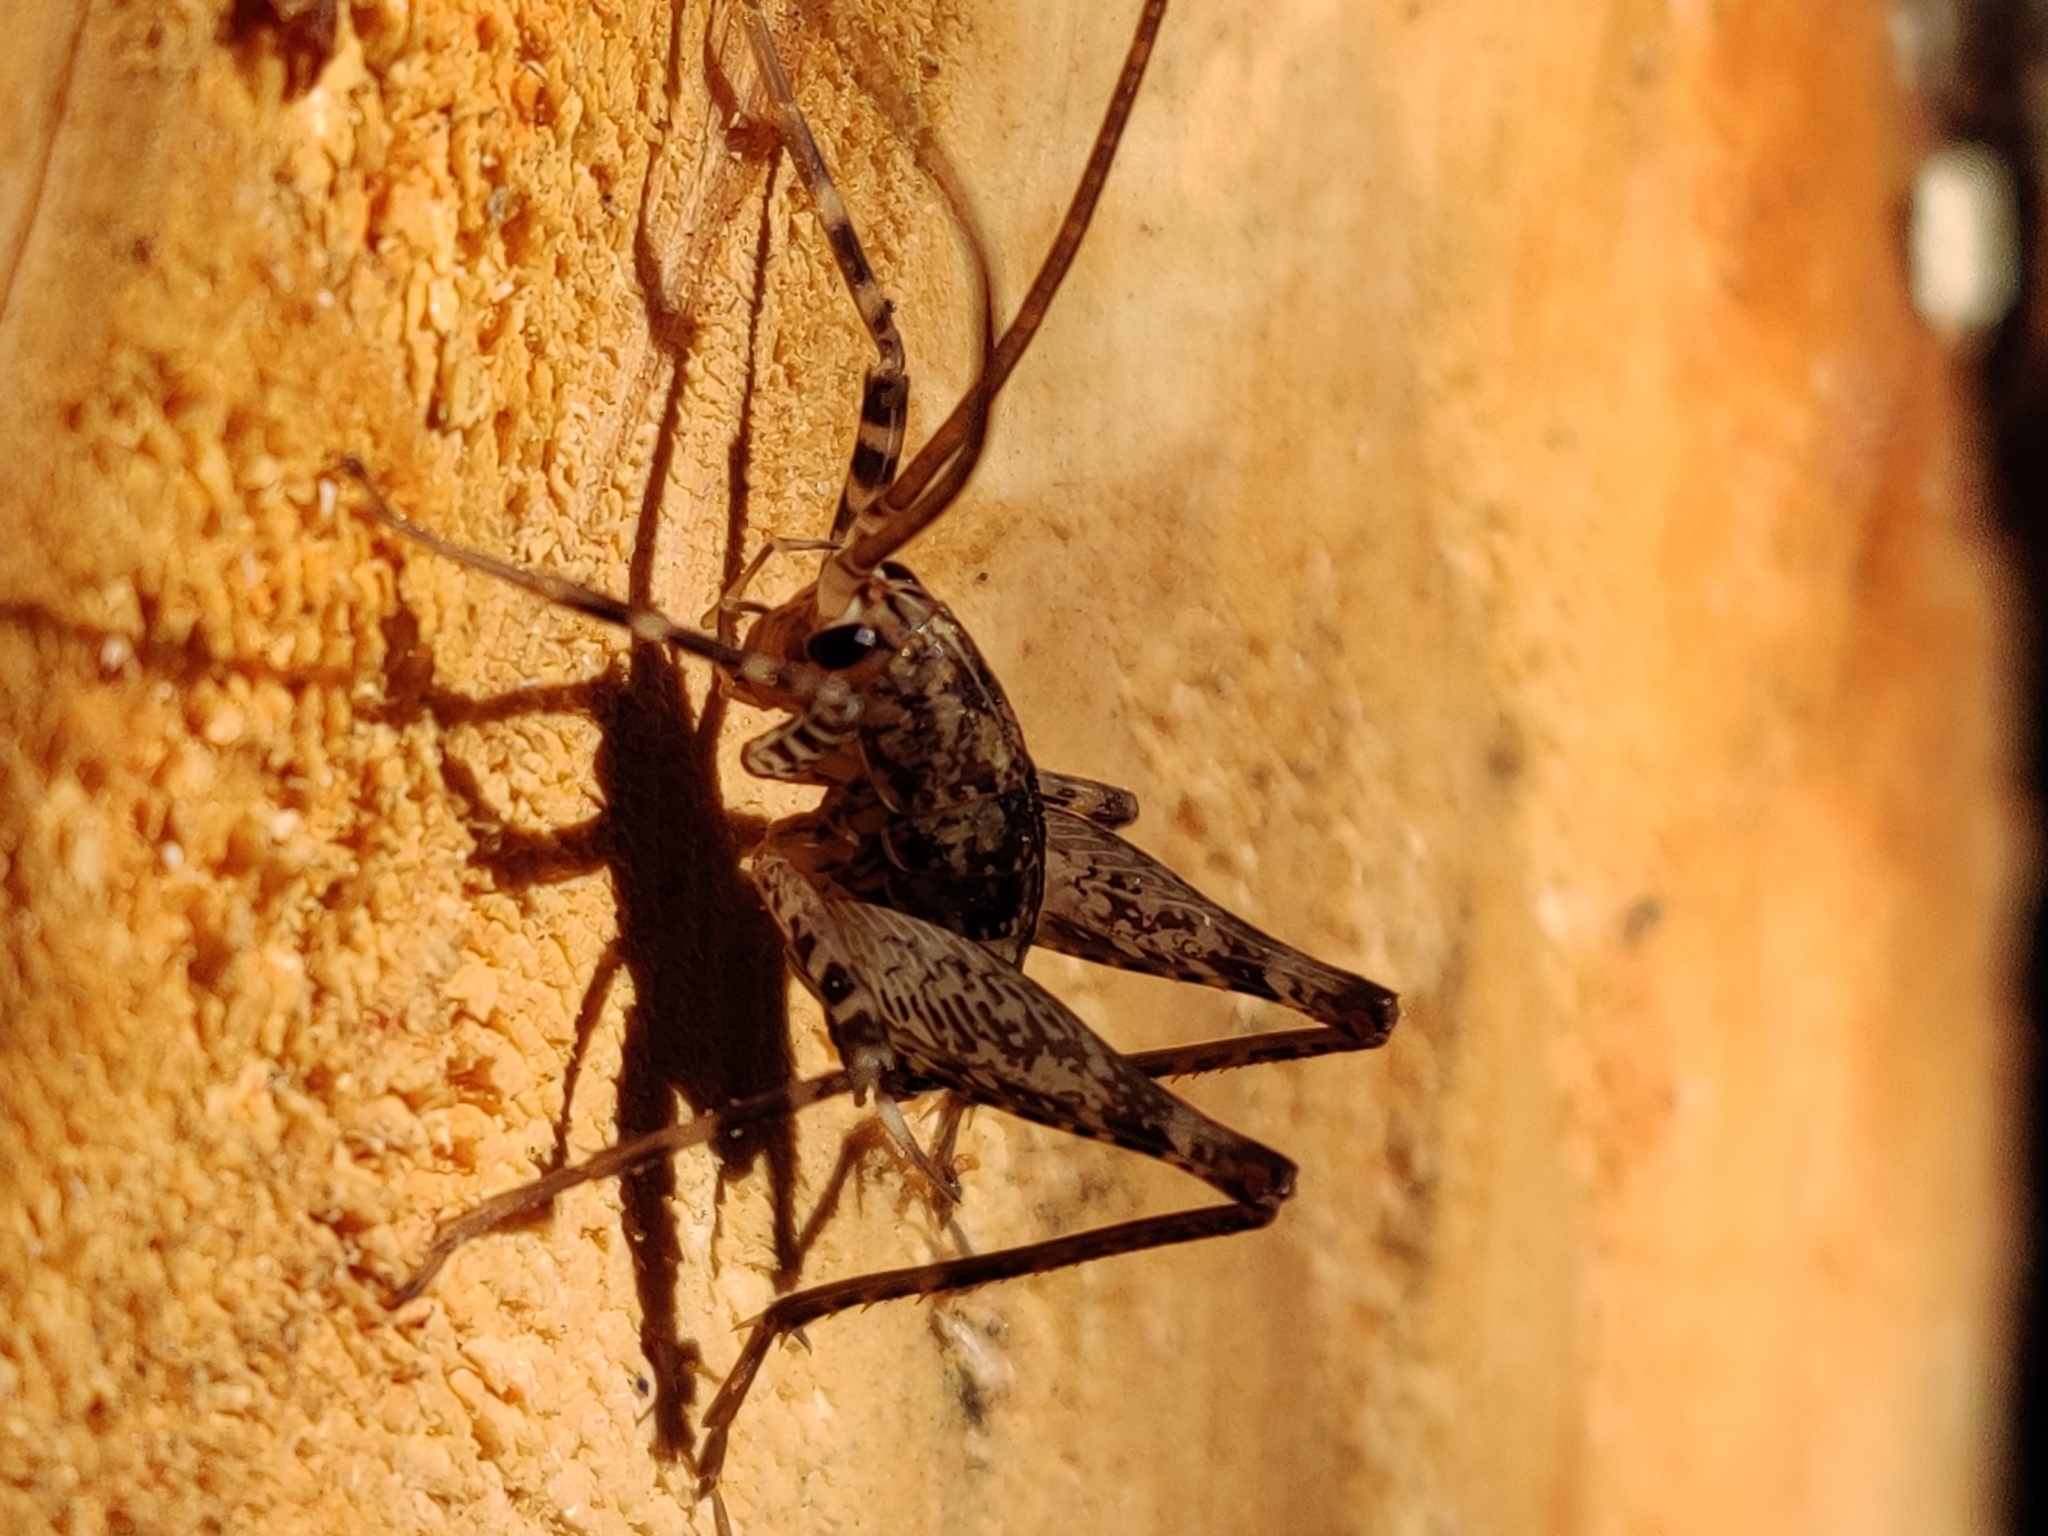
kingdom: Animalia
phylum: Arthropoda
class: Insecta
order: Orthoptera
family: Rhaphidophoridae
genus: Pleioplectron
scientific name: Pleioplectron simplex
